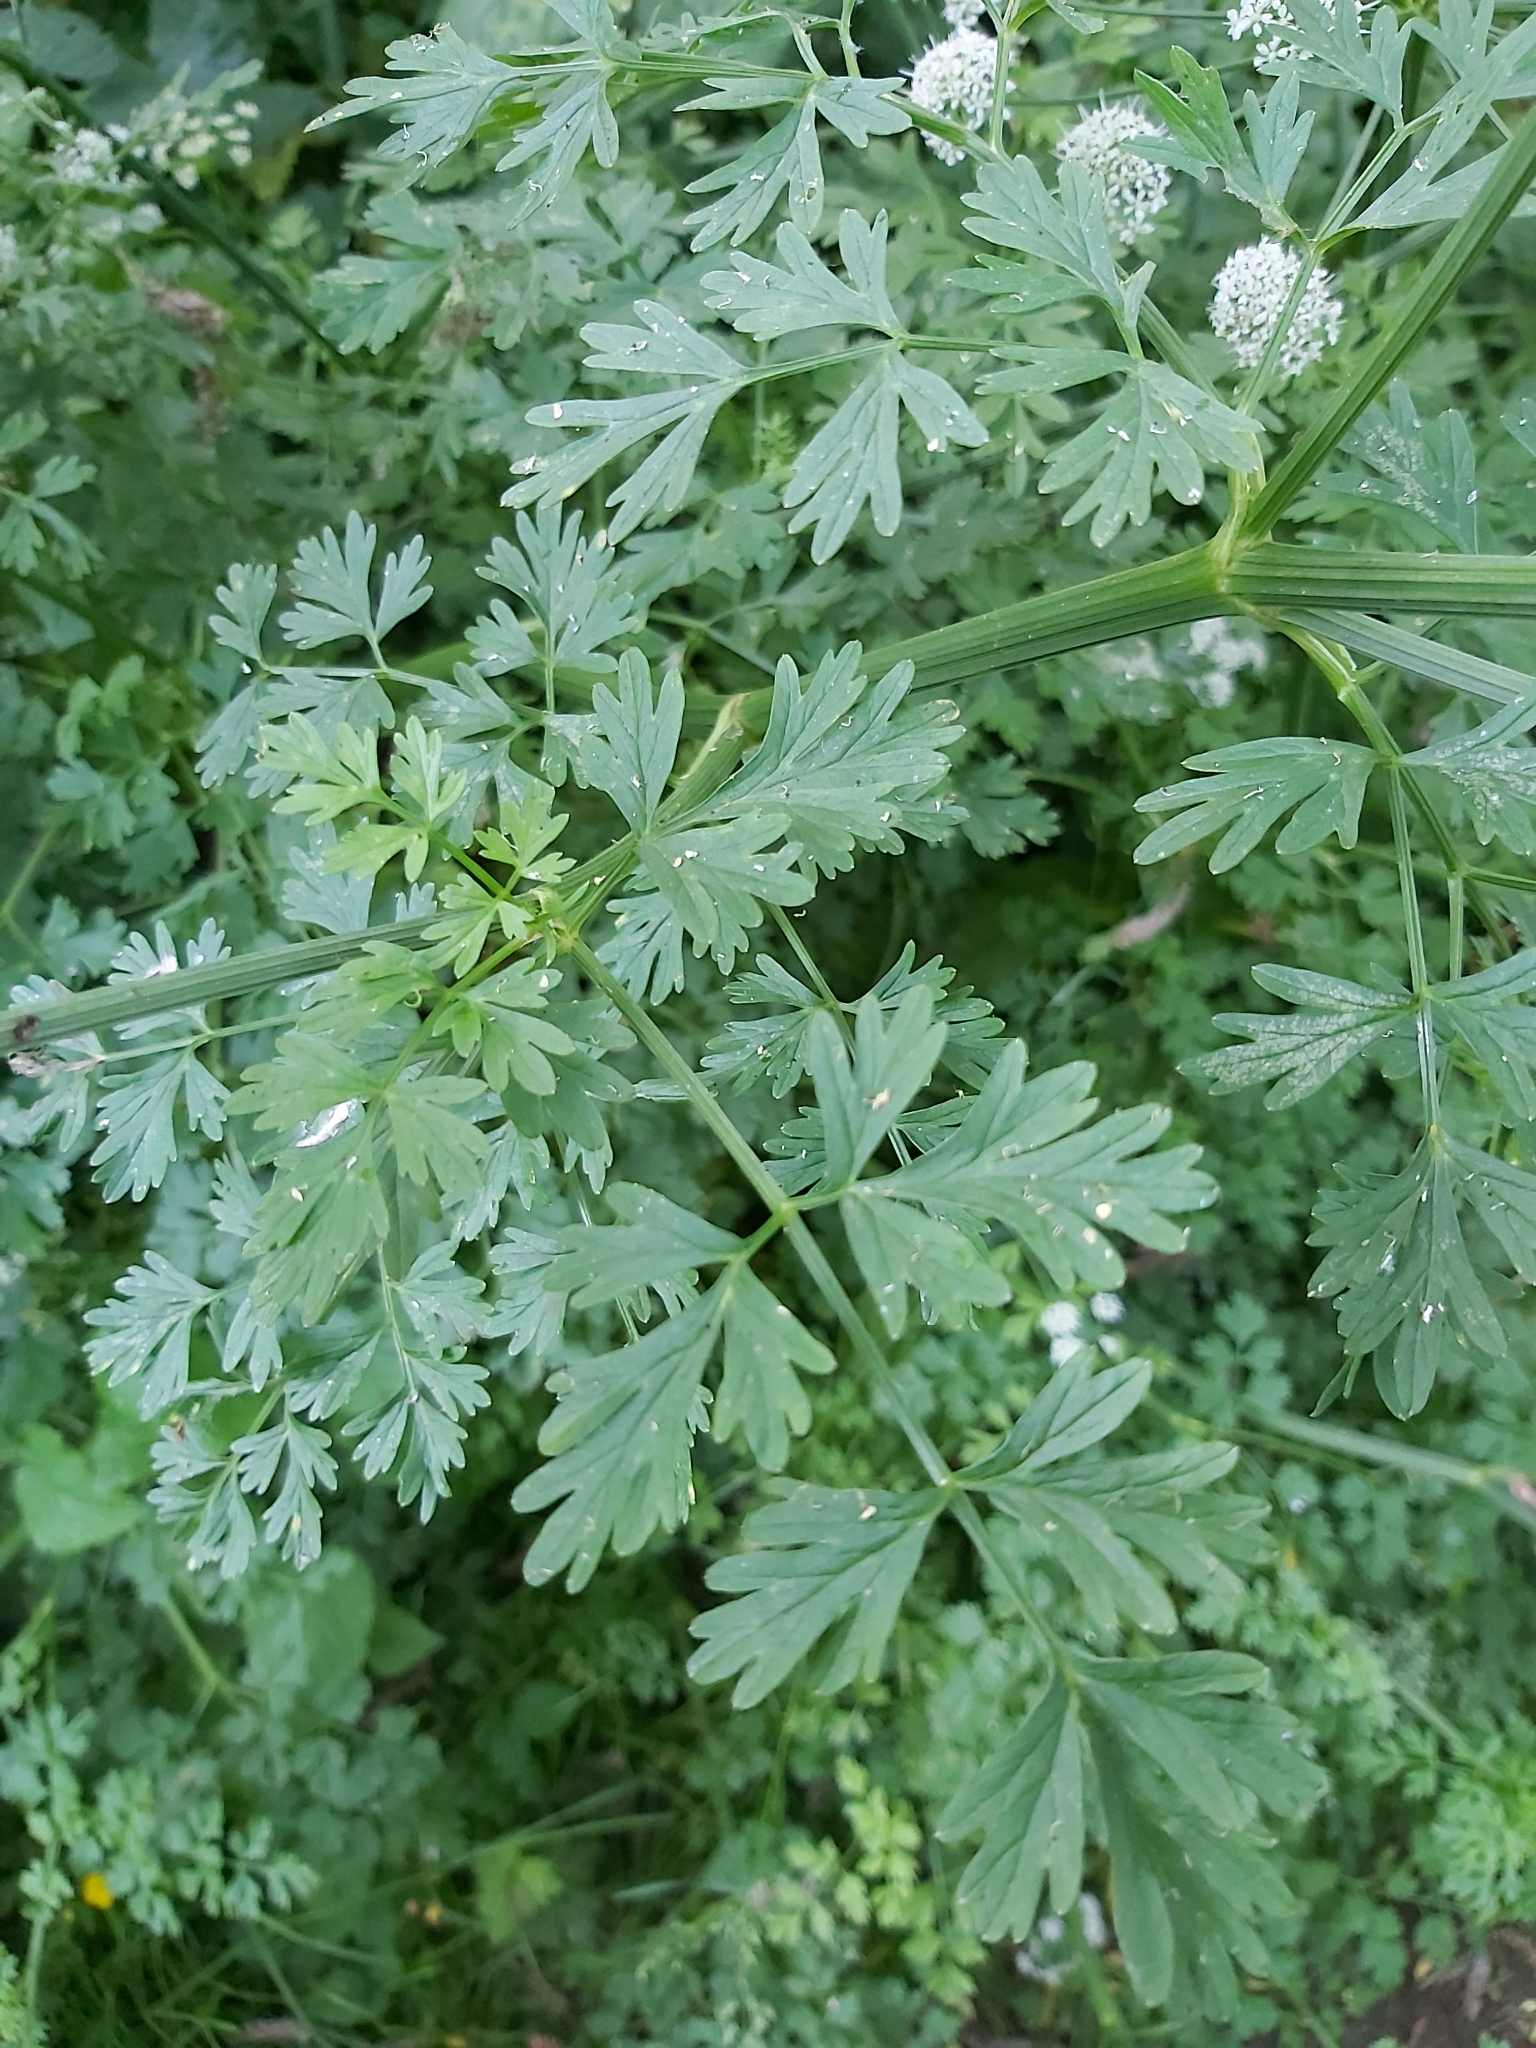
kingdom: Plantae
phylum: Tracheophyta
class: Magnoliopsida
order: Apiales
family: Apiaceae
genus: Oenanthe
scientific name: Oenanthe crocata
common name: Hemlock water-dropwort
